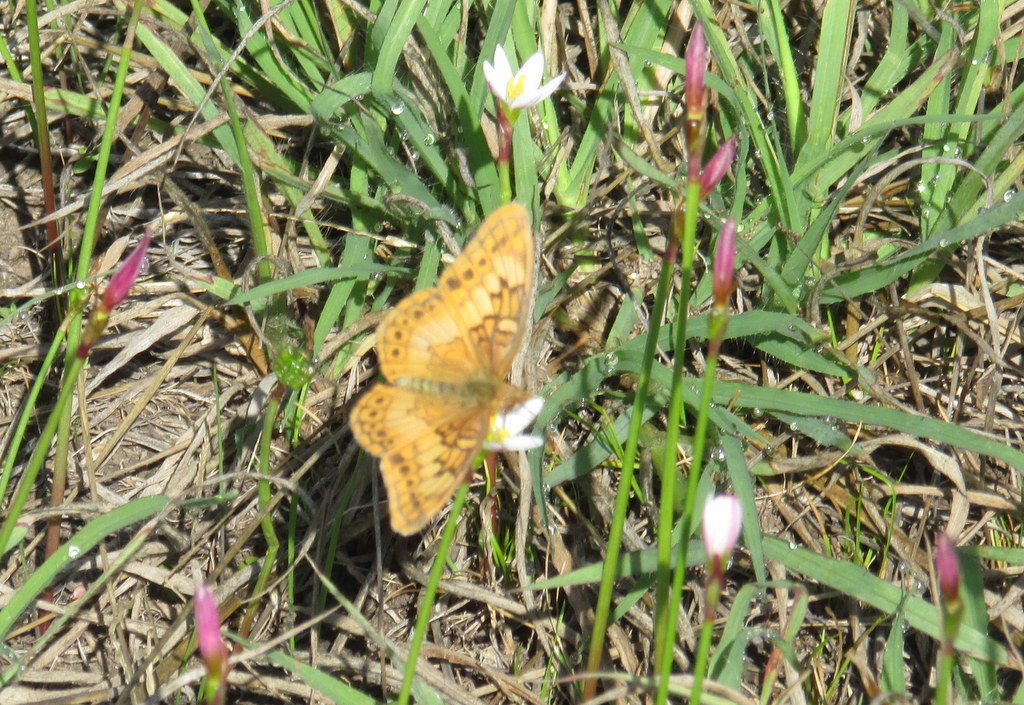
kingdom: Animalia
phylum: Arthropoda
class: Insecta
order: Lepidoptera
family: Nymphalidae
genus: Euptoieta
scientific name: Euptoieta hortensia
